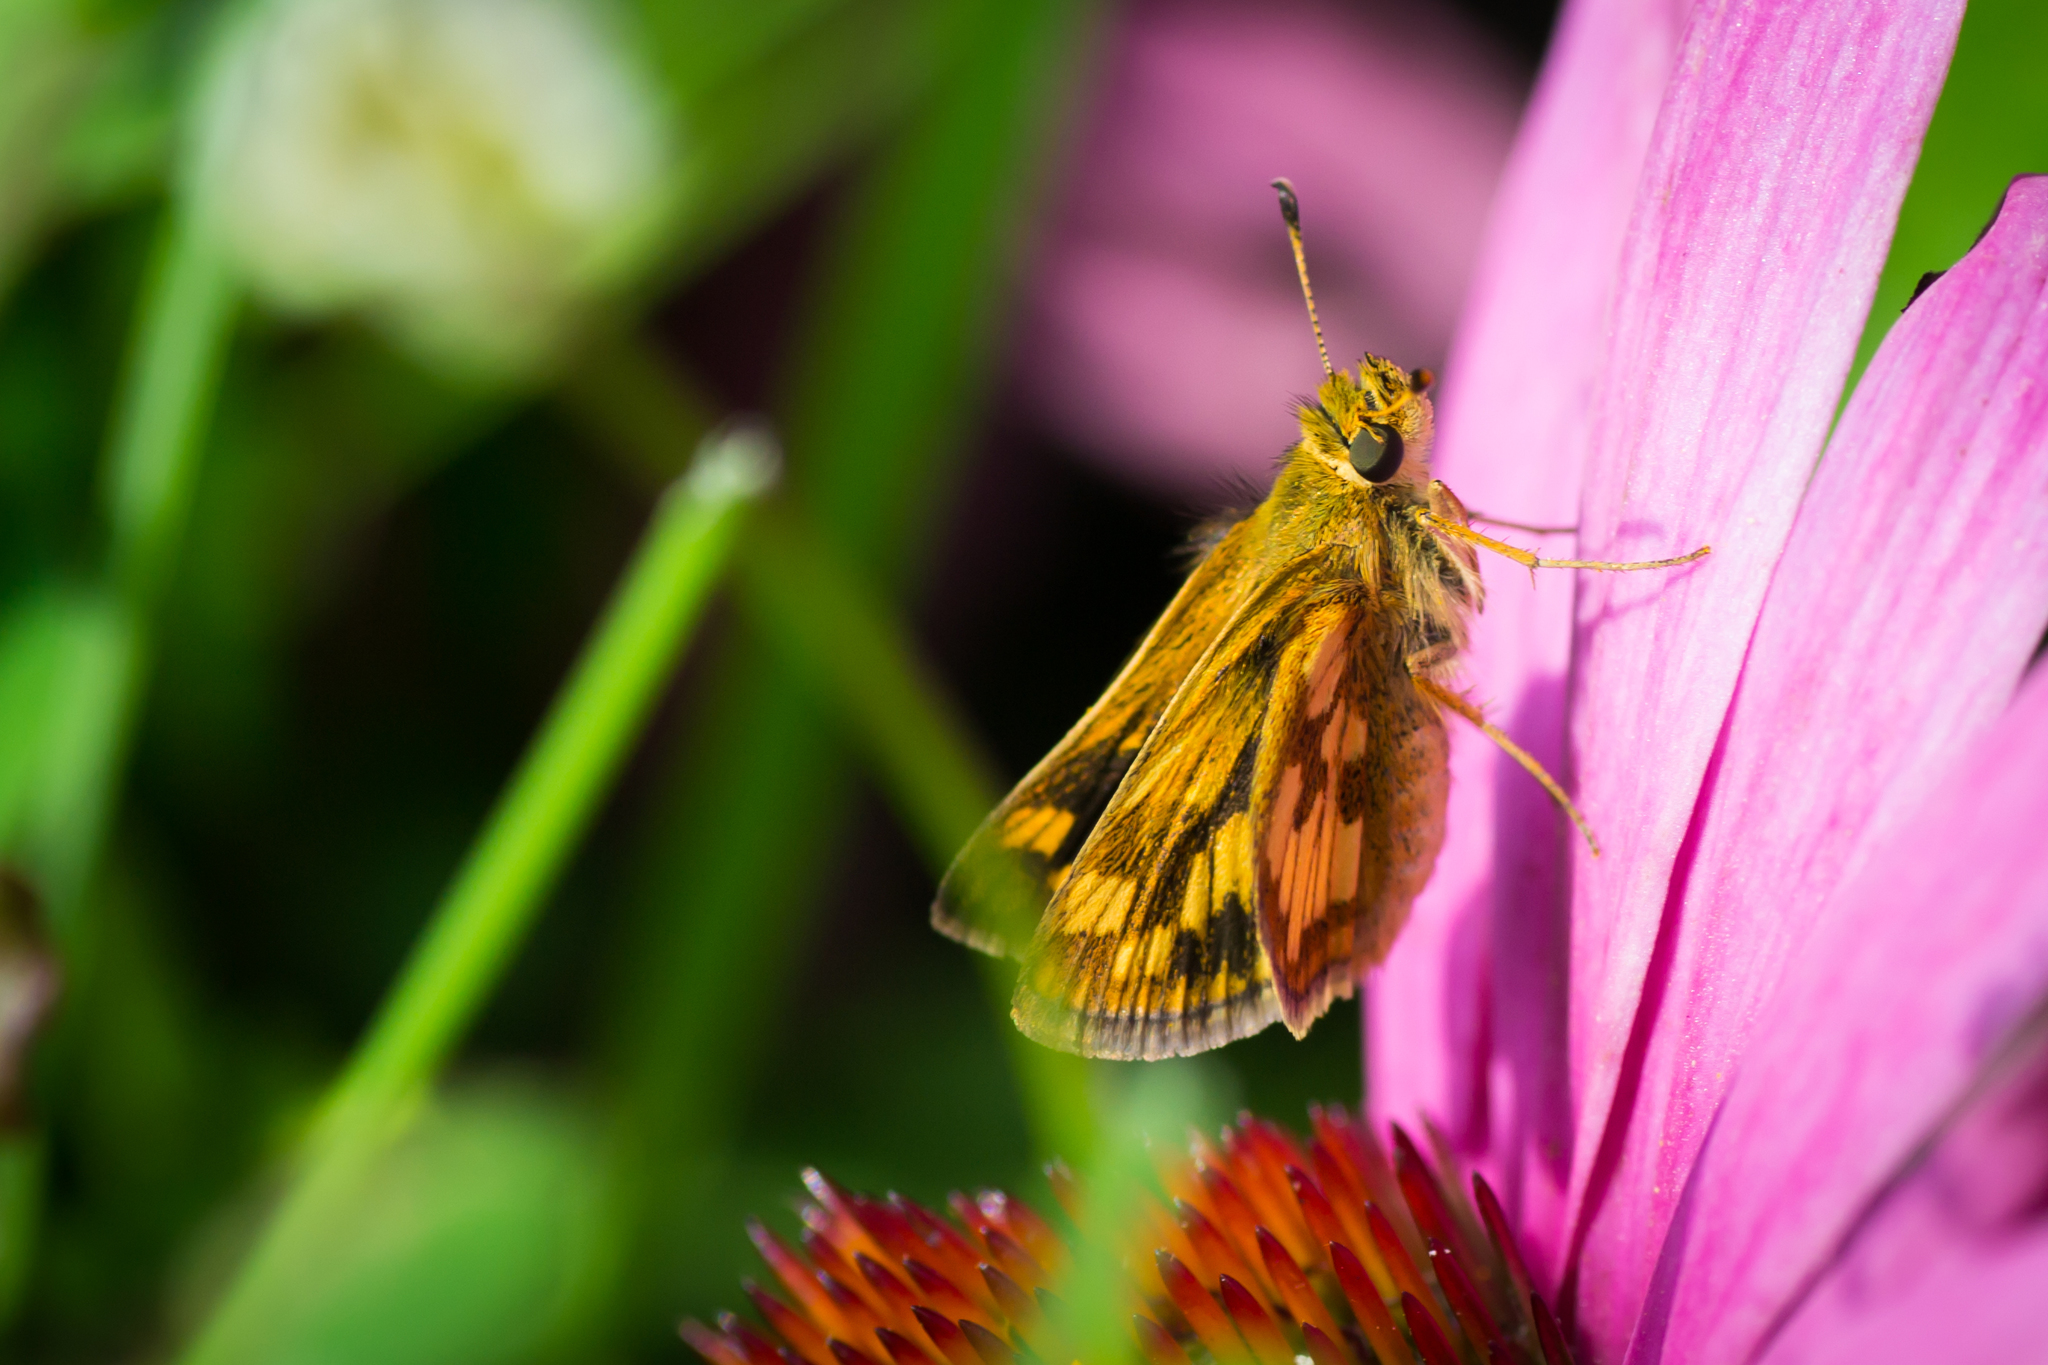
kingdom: Animalia
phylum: Arthropoda
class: Insecta
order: Lepidoptera
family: Hesperiidae
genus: Polites
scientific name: Polites coras
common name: Peck's skipper
